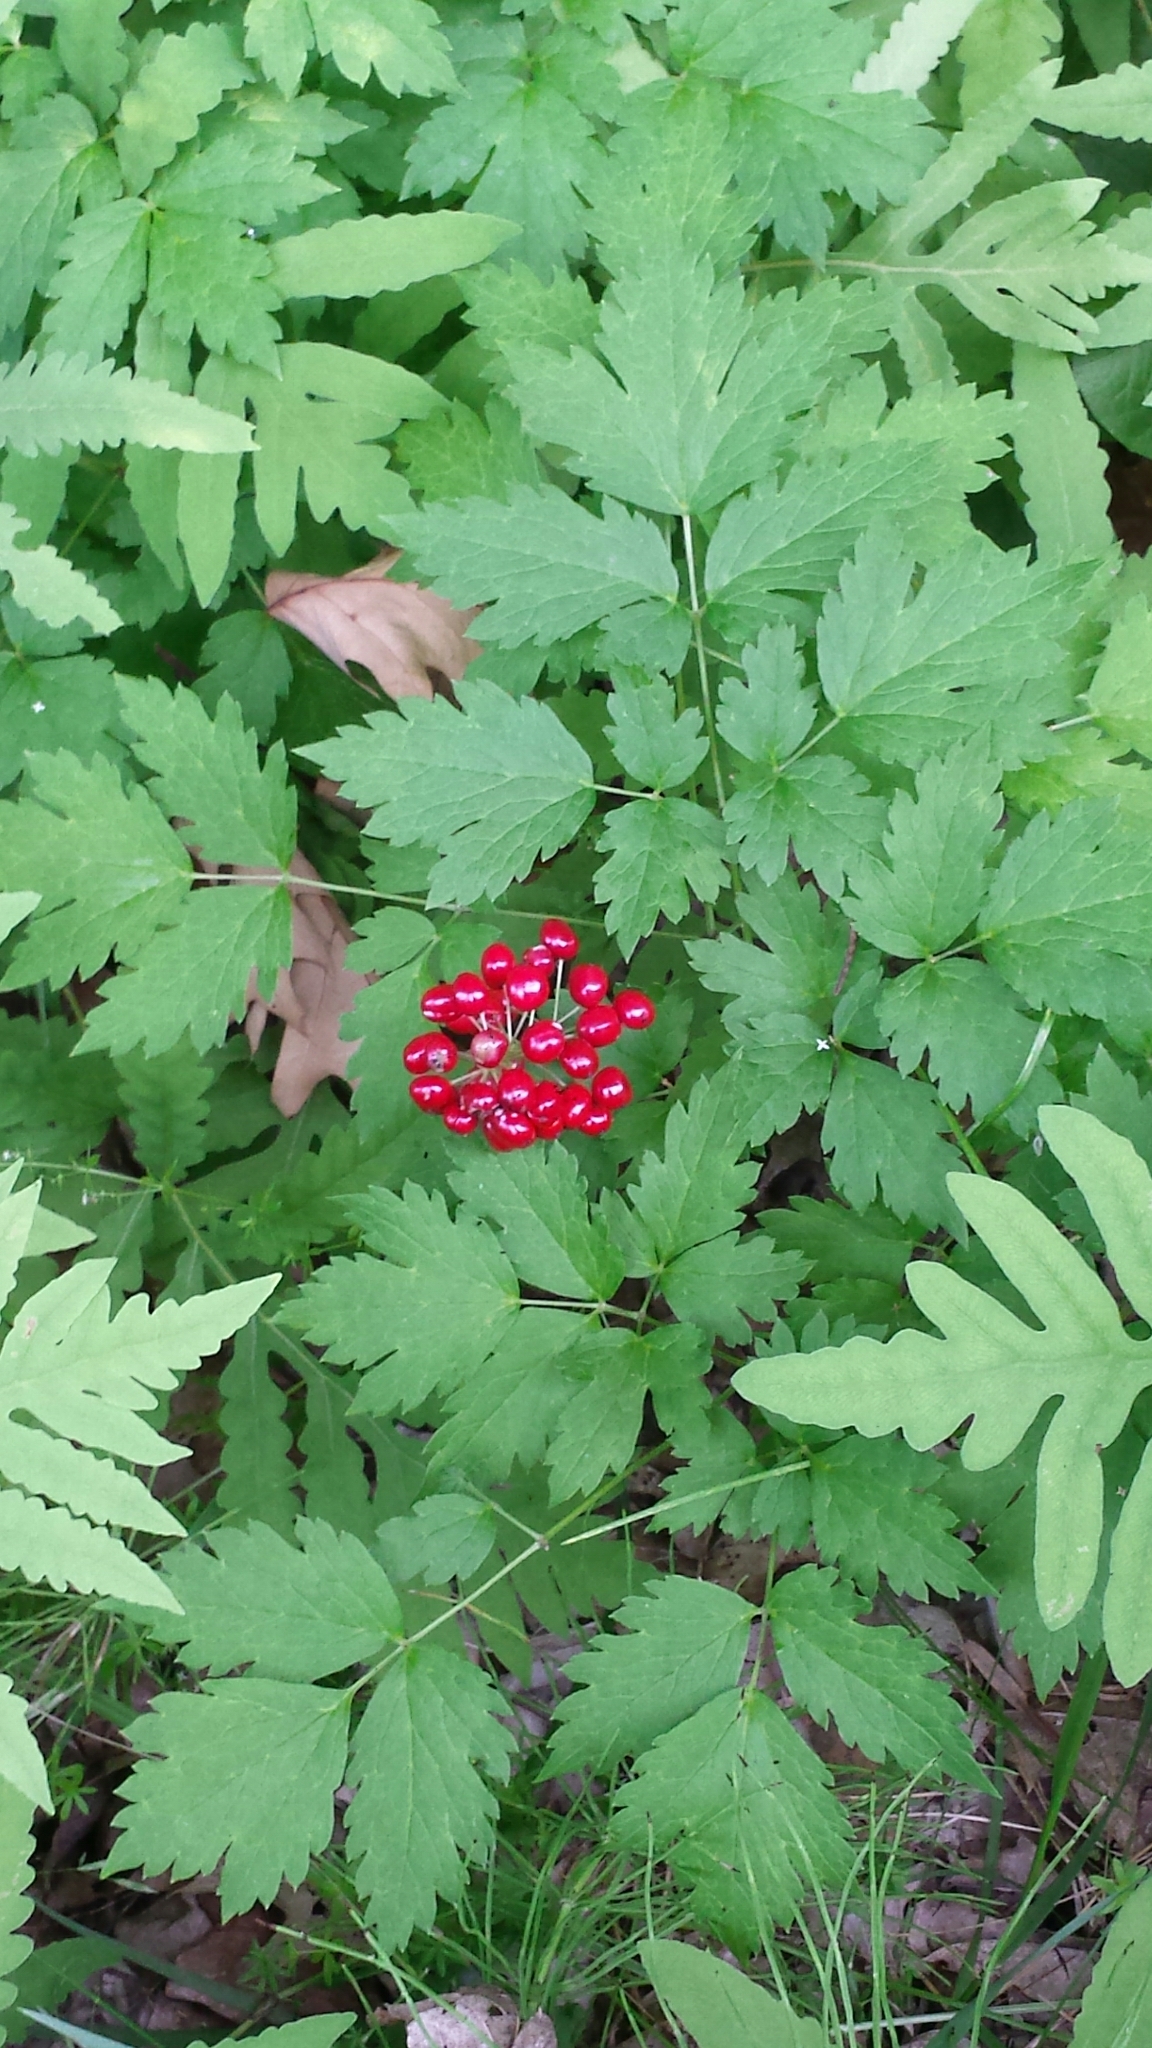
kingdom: Plantae
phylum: Tracheophyta
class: Magnoliopsida
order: Ranunculales
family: Ranunculaceae
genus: Actaea
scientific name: Actaea rubra
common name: Red baneberry
